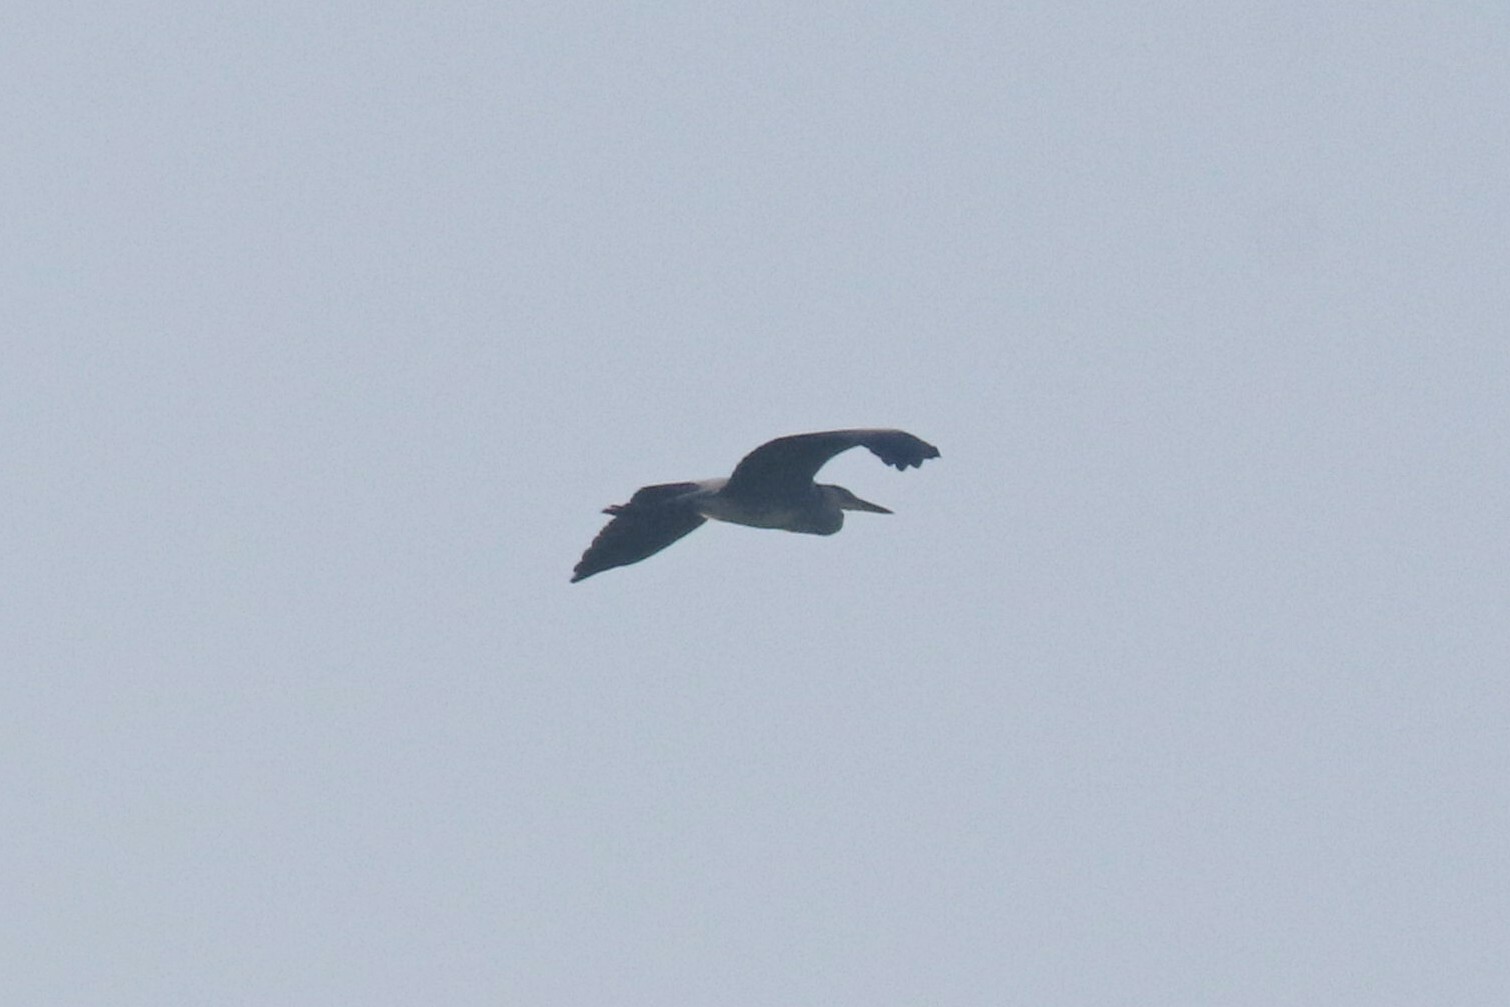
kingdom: Animalia
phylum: Chordata
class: Aves
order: Pelecaniformes
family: Ardeidae
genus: Ardea
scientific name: Ardea cinerea
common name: Grey heron
